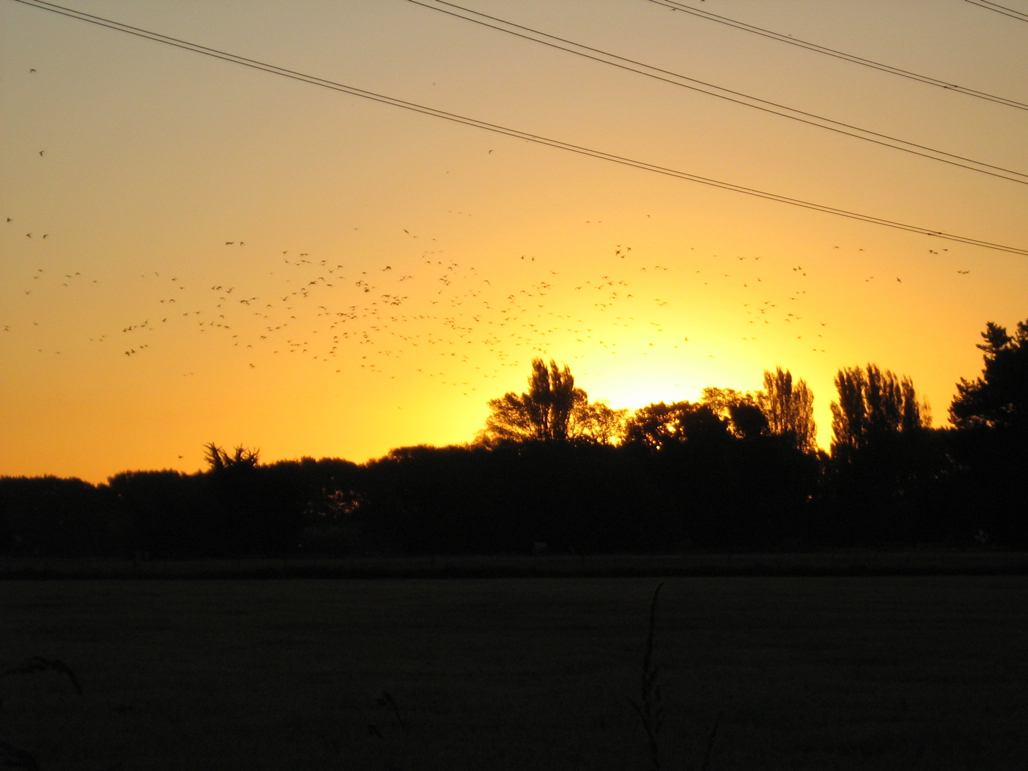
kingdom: Animalia
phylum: Chordata
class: Aves
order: Anseriformes
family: Anatidae
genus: Anas
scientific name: Anas platyrhynchos
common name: Mallard
